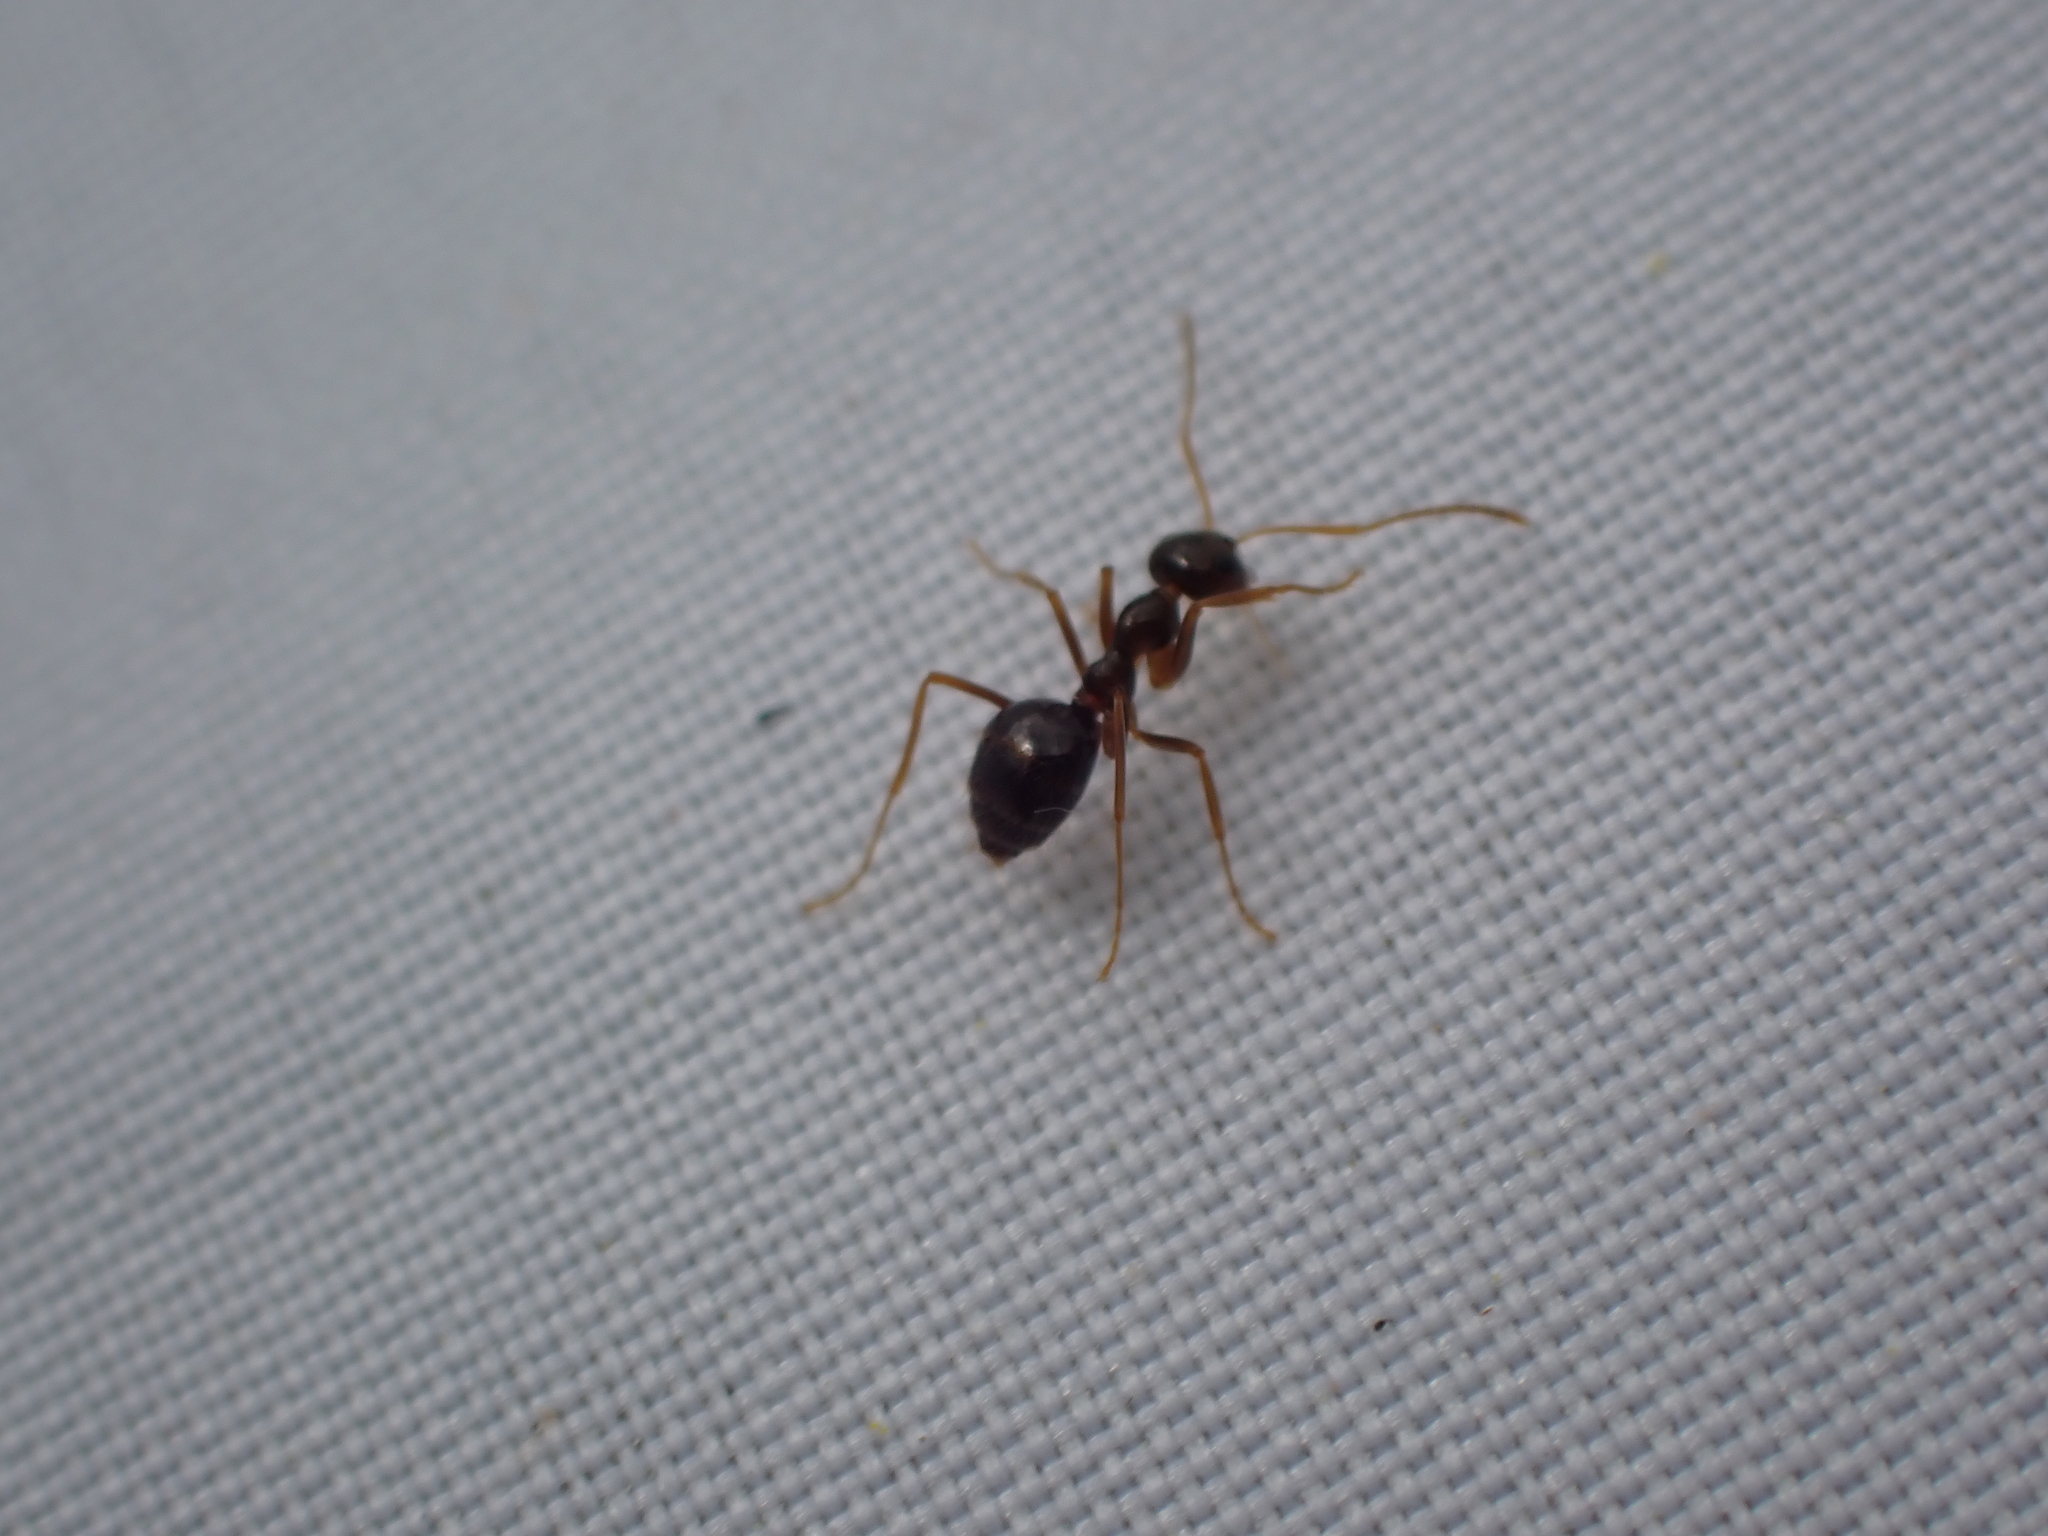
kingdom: Animalia
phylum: Arthropoda
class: Insecta
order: Hymenoptera
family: Formicidae
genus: Prenolepis
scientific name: Prenolepis imparis
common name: Small honey ant
